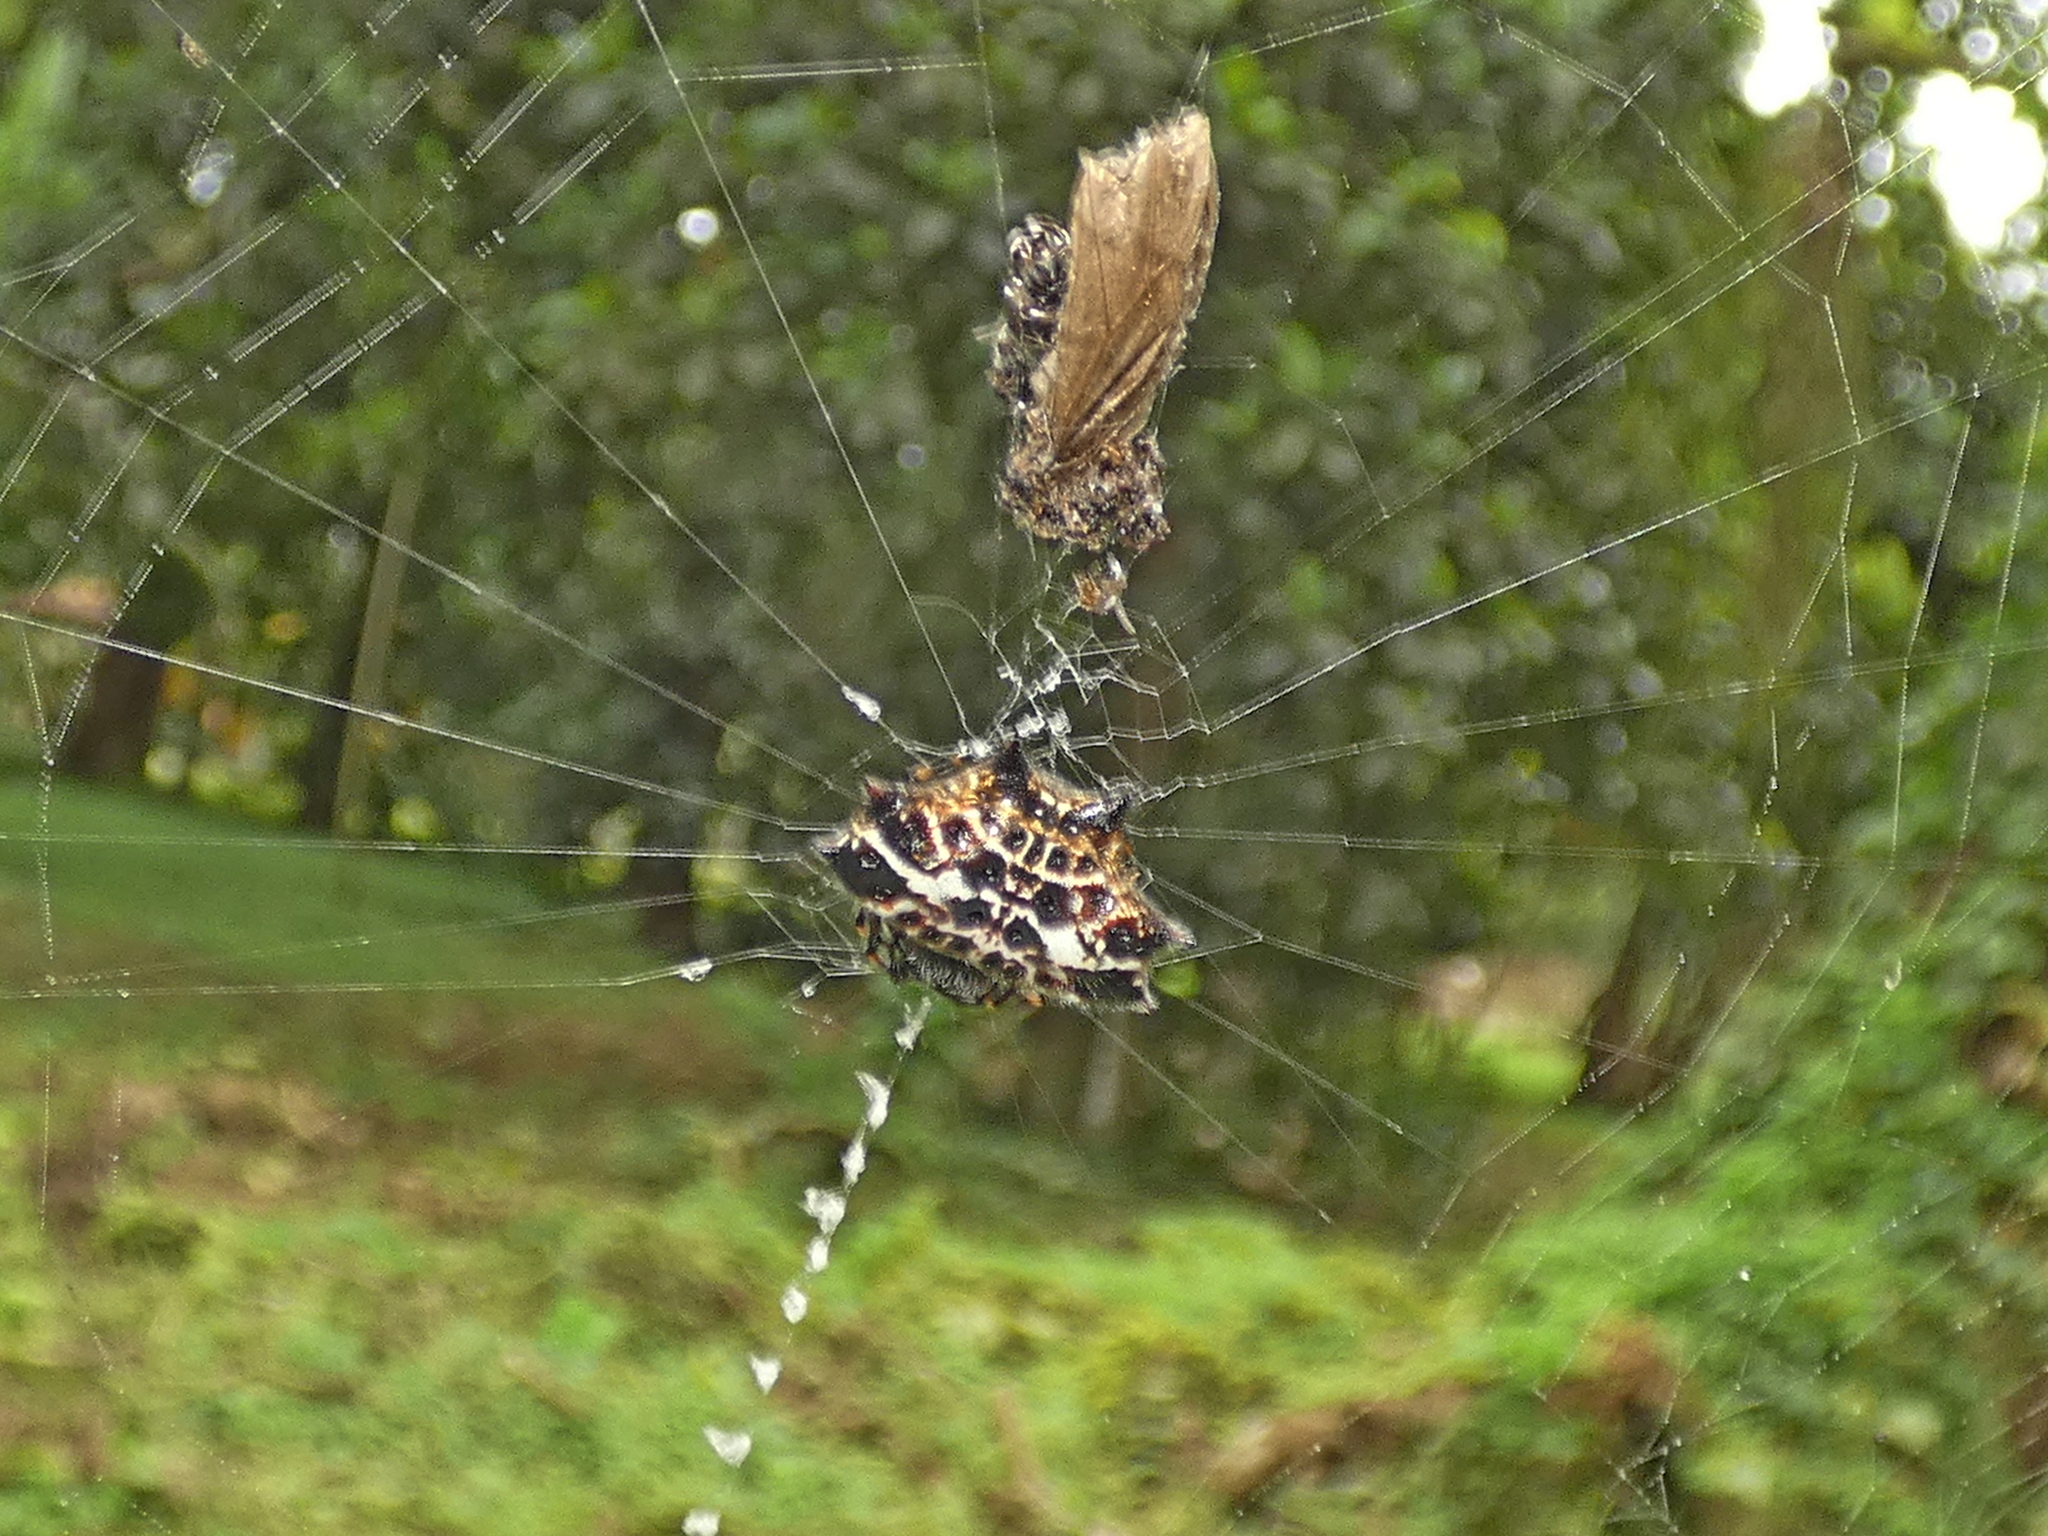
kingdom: Animalia
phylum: Arthropoda
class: Arachnida
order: Araneae
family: Araneidae
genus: Gasteracantha
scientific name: Gasteracantha cancriformis
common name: Orb weavers
